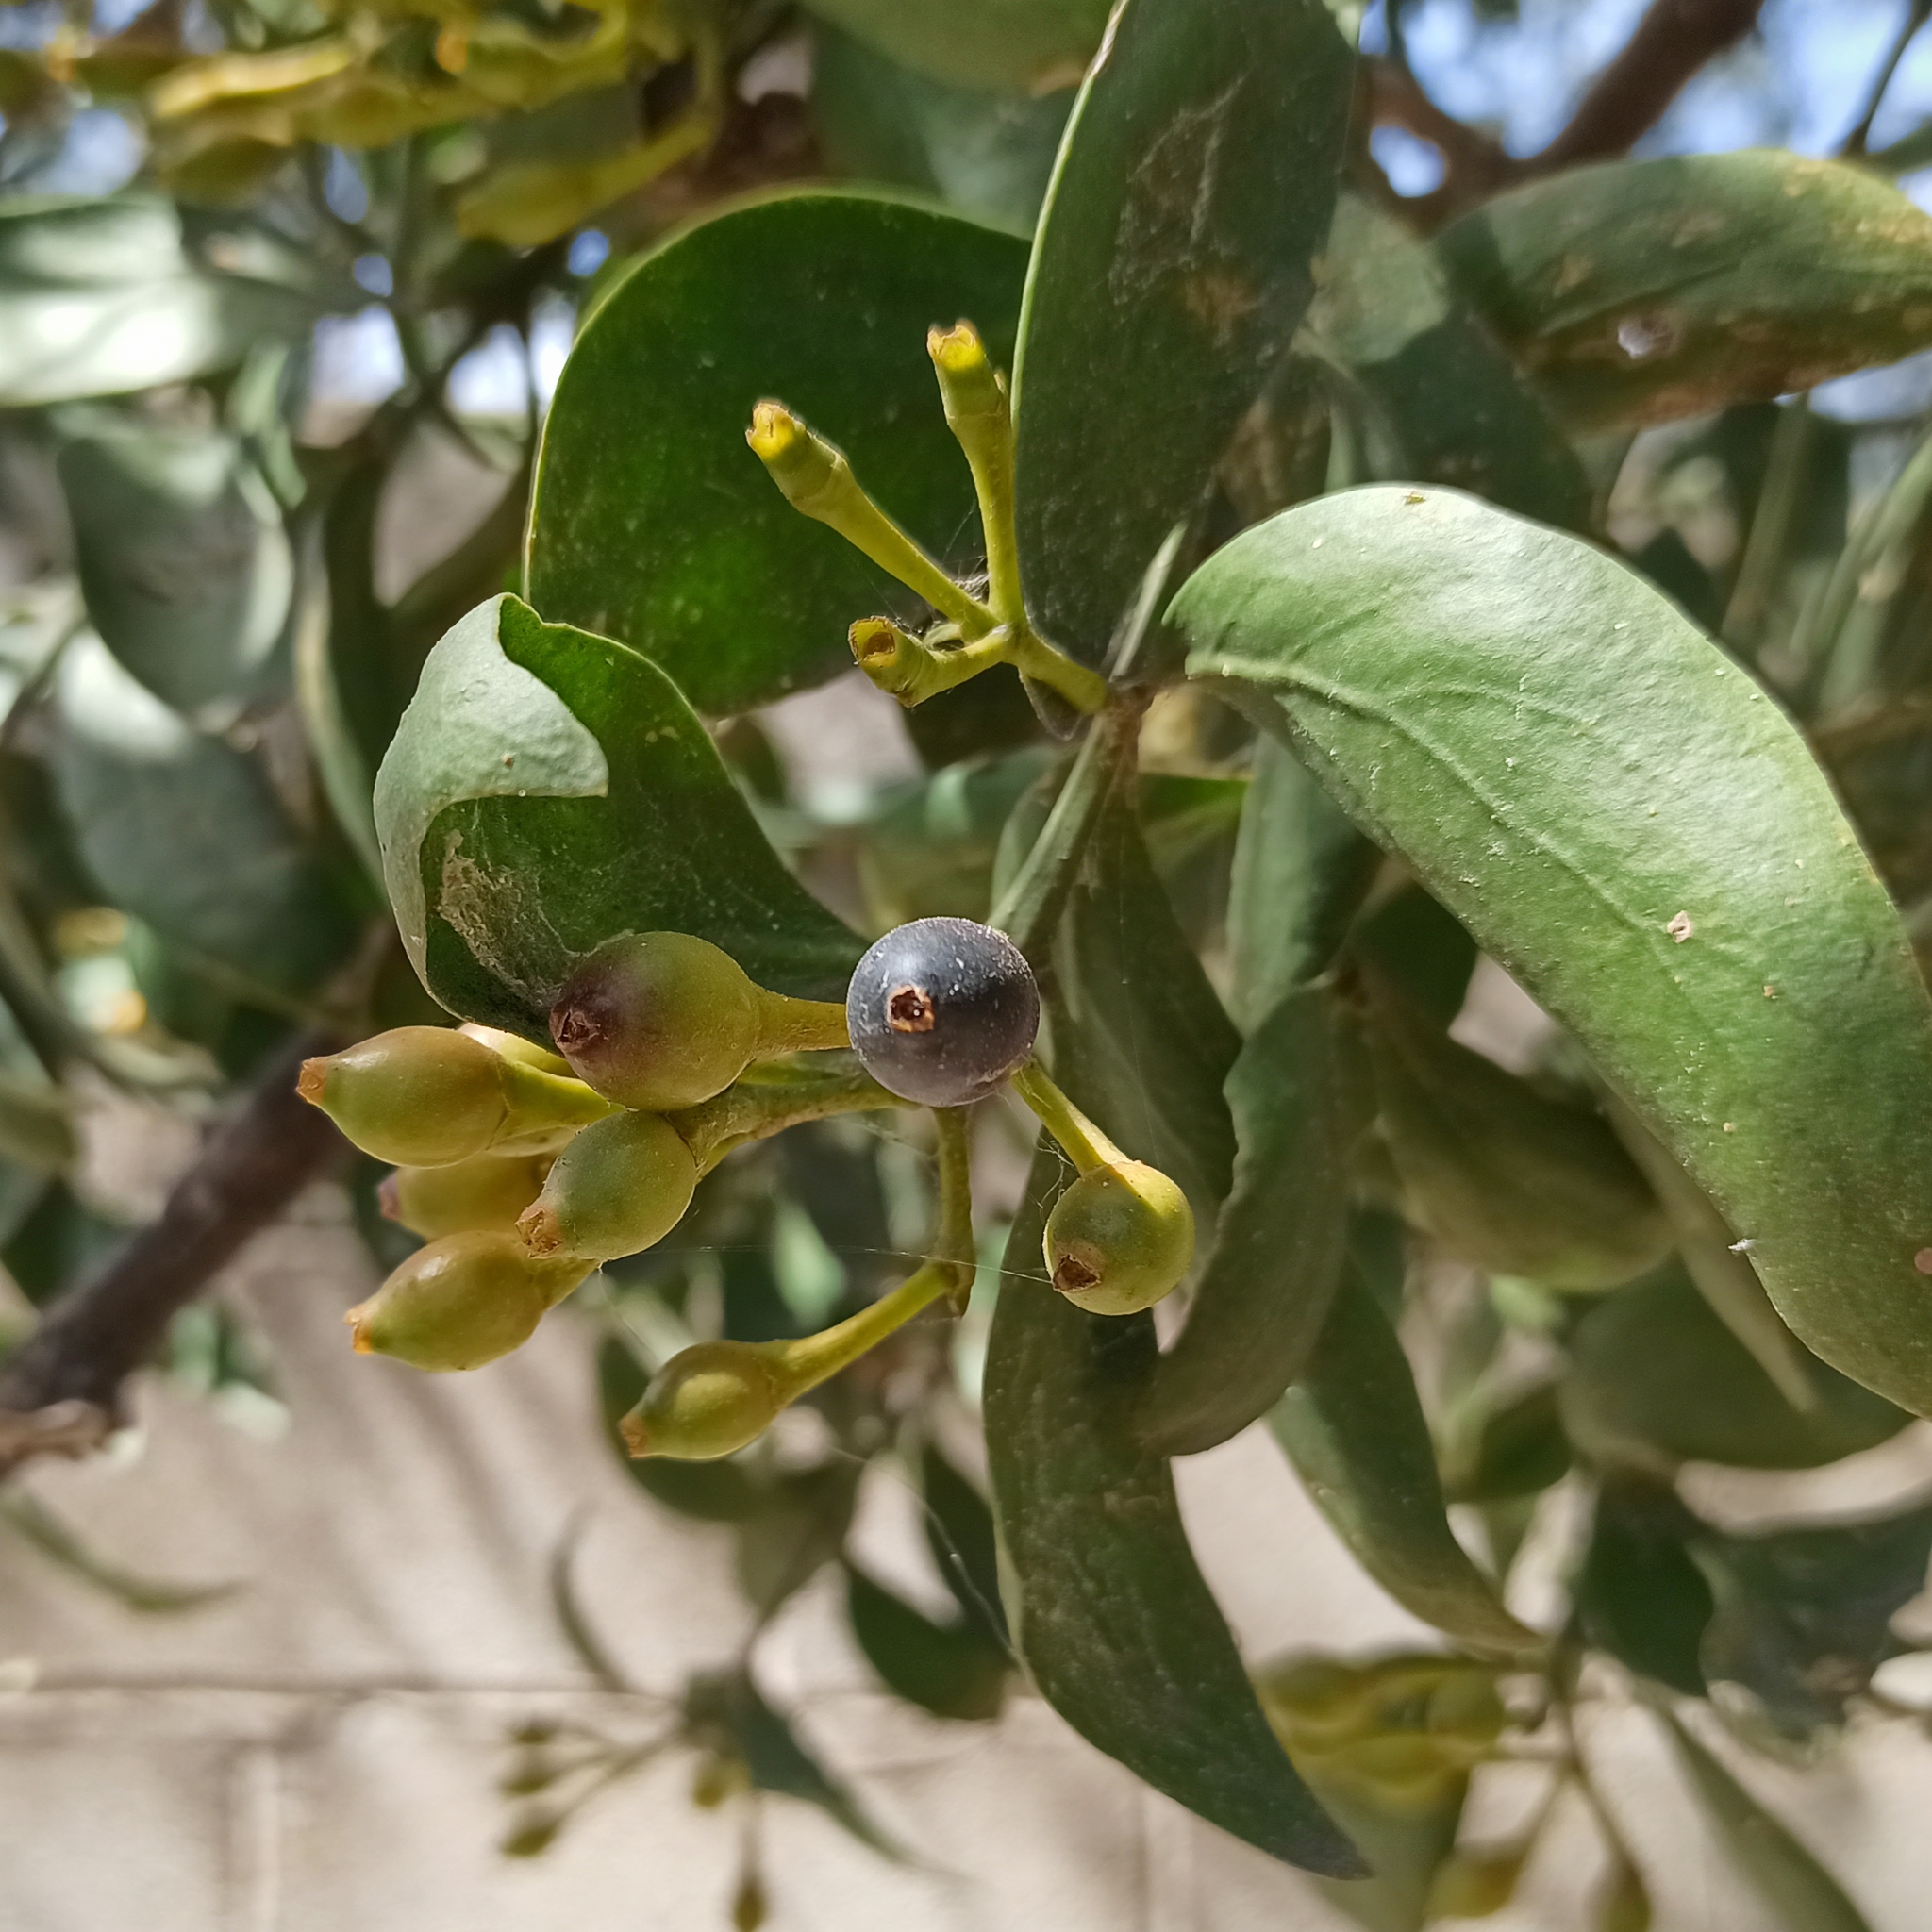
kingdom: Plantae
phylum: Tracheophyta
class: Magnoliopsida
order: Santalales
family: Loranthaceae
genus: Psittacanthus
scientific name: Psittacanthus calyculatus
